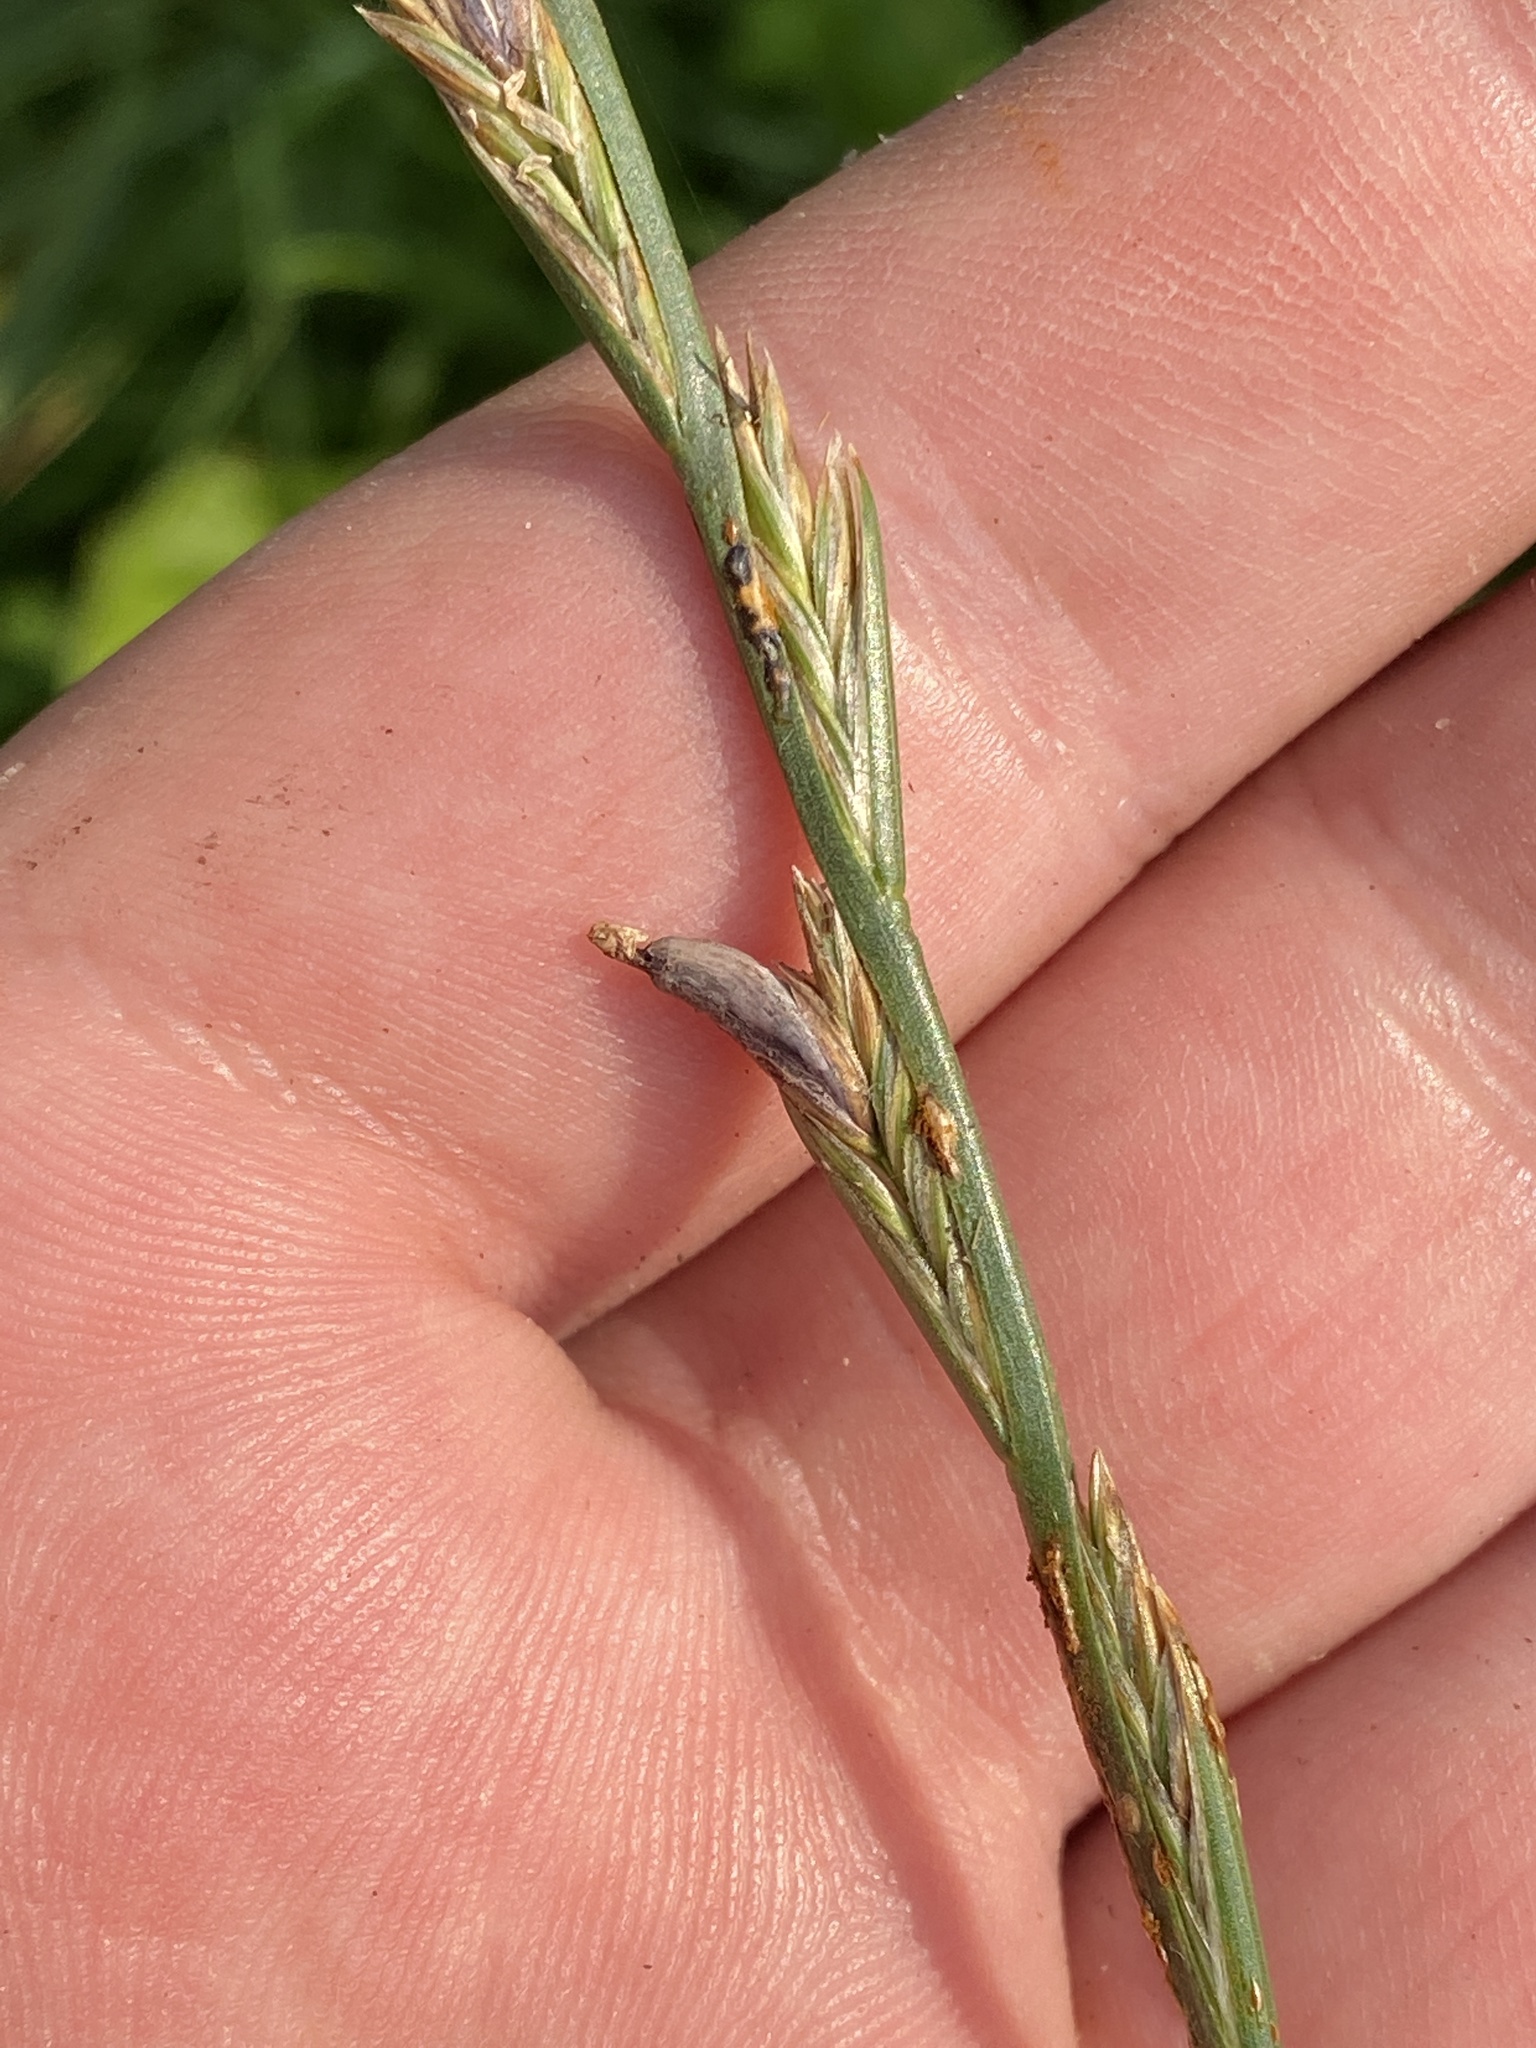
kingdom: Fungi
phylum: Ascomycota
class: Sordariomycetes
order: Hypocreales
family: Clavicipitaceae
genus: Claviceps
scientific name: Claviceps purpurea
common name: Rye ergot
